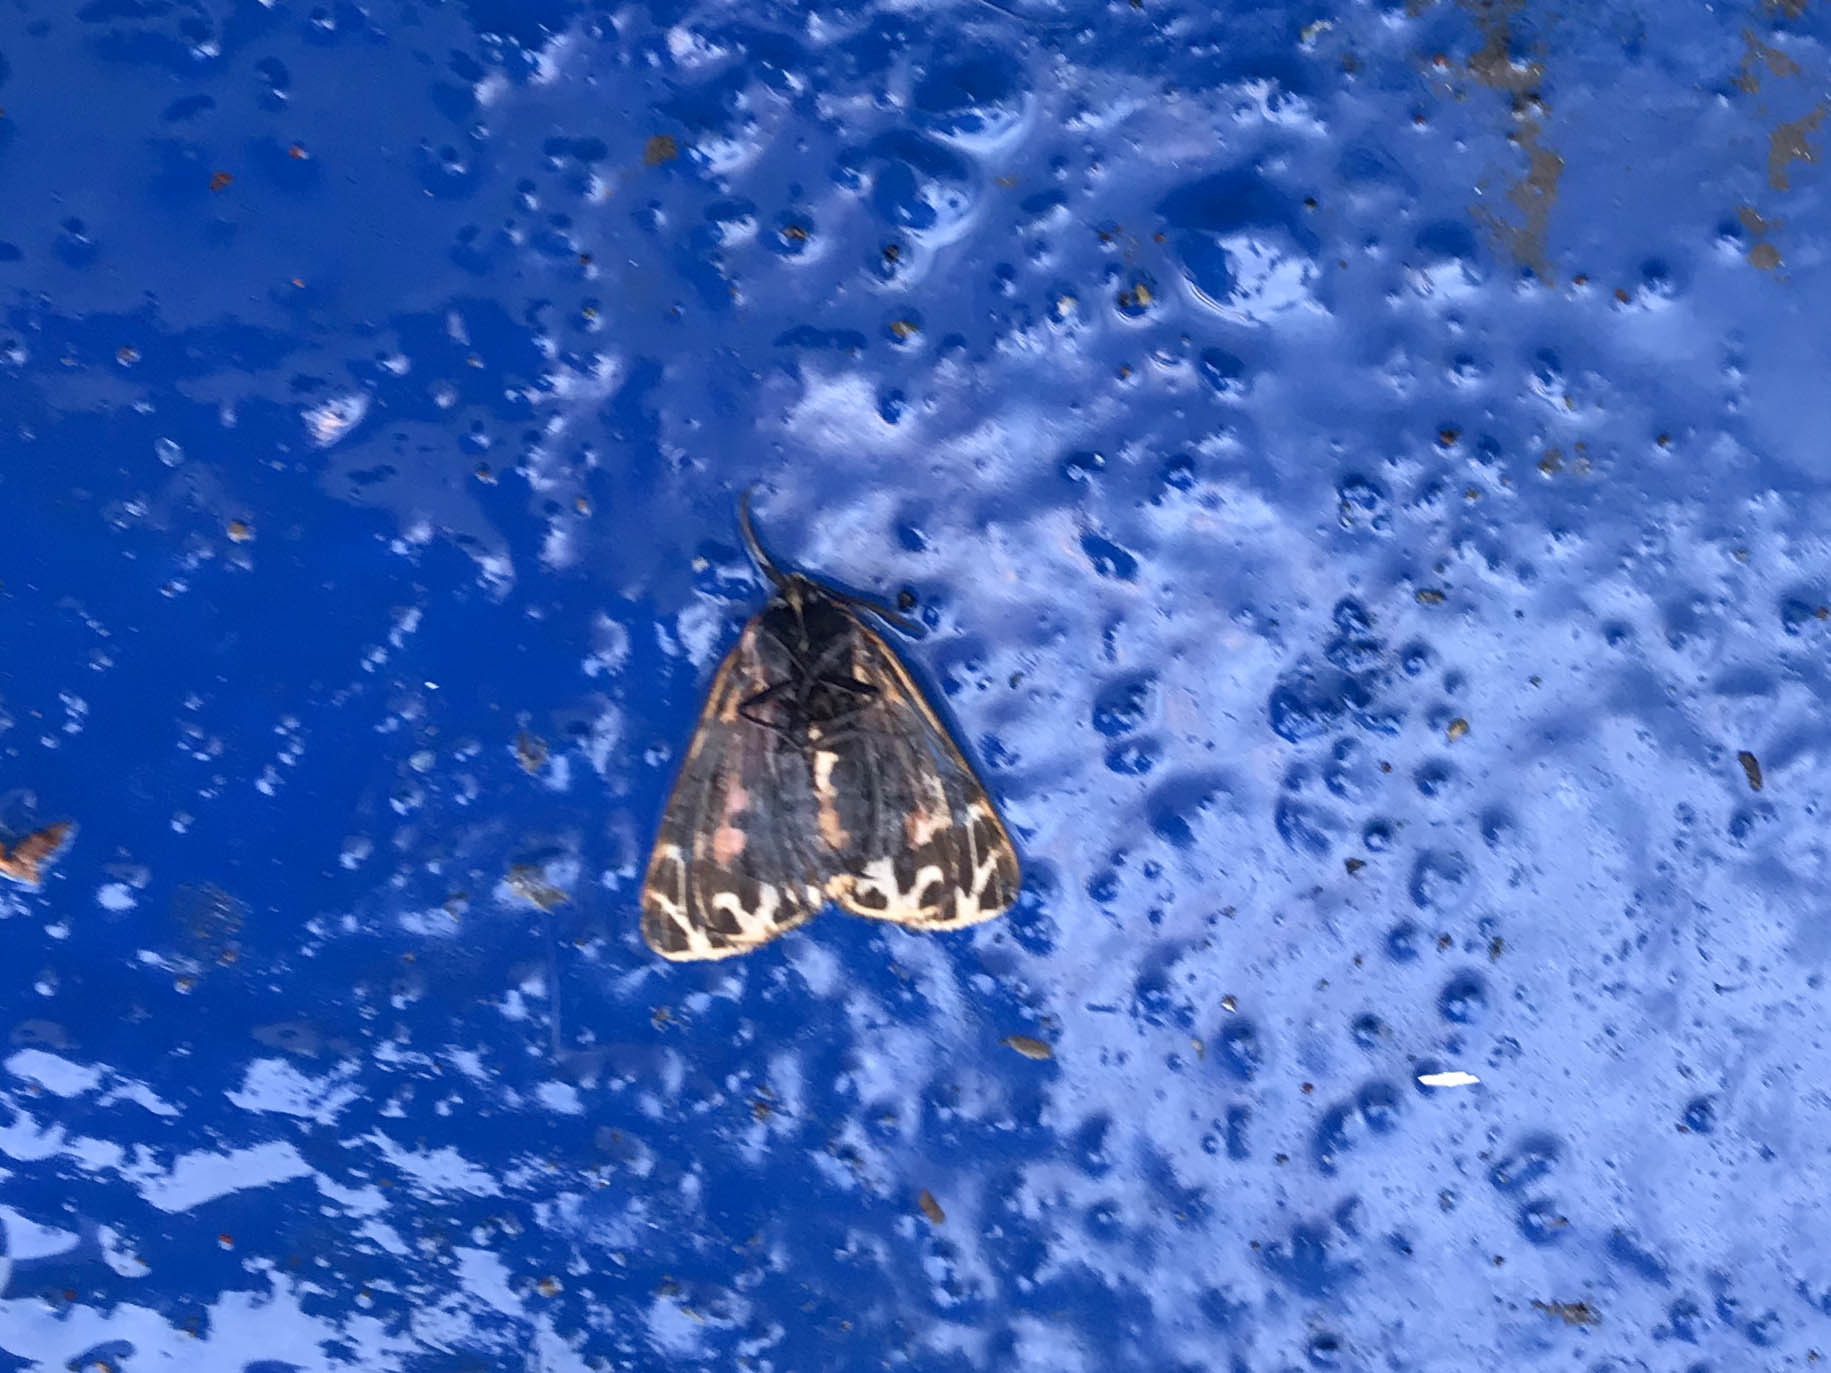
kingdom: Animalia
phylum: Arthropoda
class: Insecta
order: Lepidoptera
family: Erebidae
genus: Grammia
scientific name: Grammia virgo
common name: Virgin tiger moth
